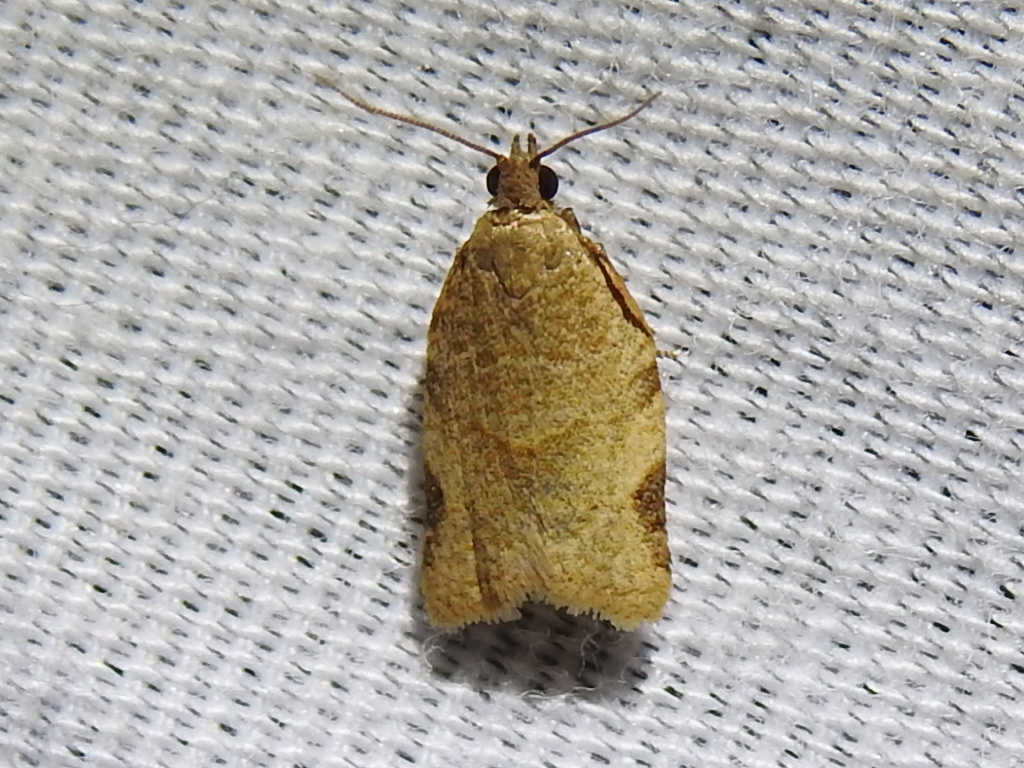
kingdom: Animalia
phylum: Arthropoda
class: Insecta
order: Lepidoptera
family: Tortricidae
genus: Clepsis
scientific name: Clepsis virescana
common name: Greenish apple moth
